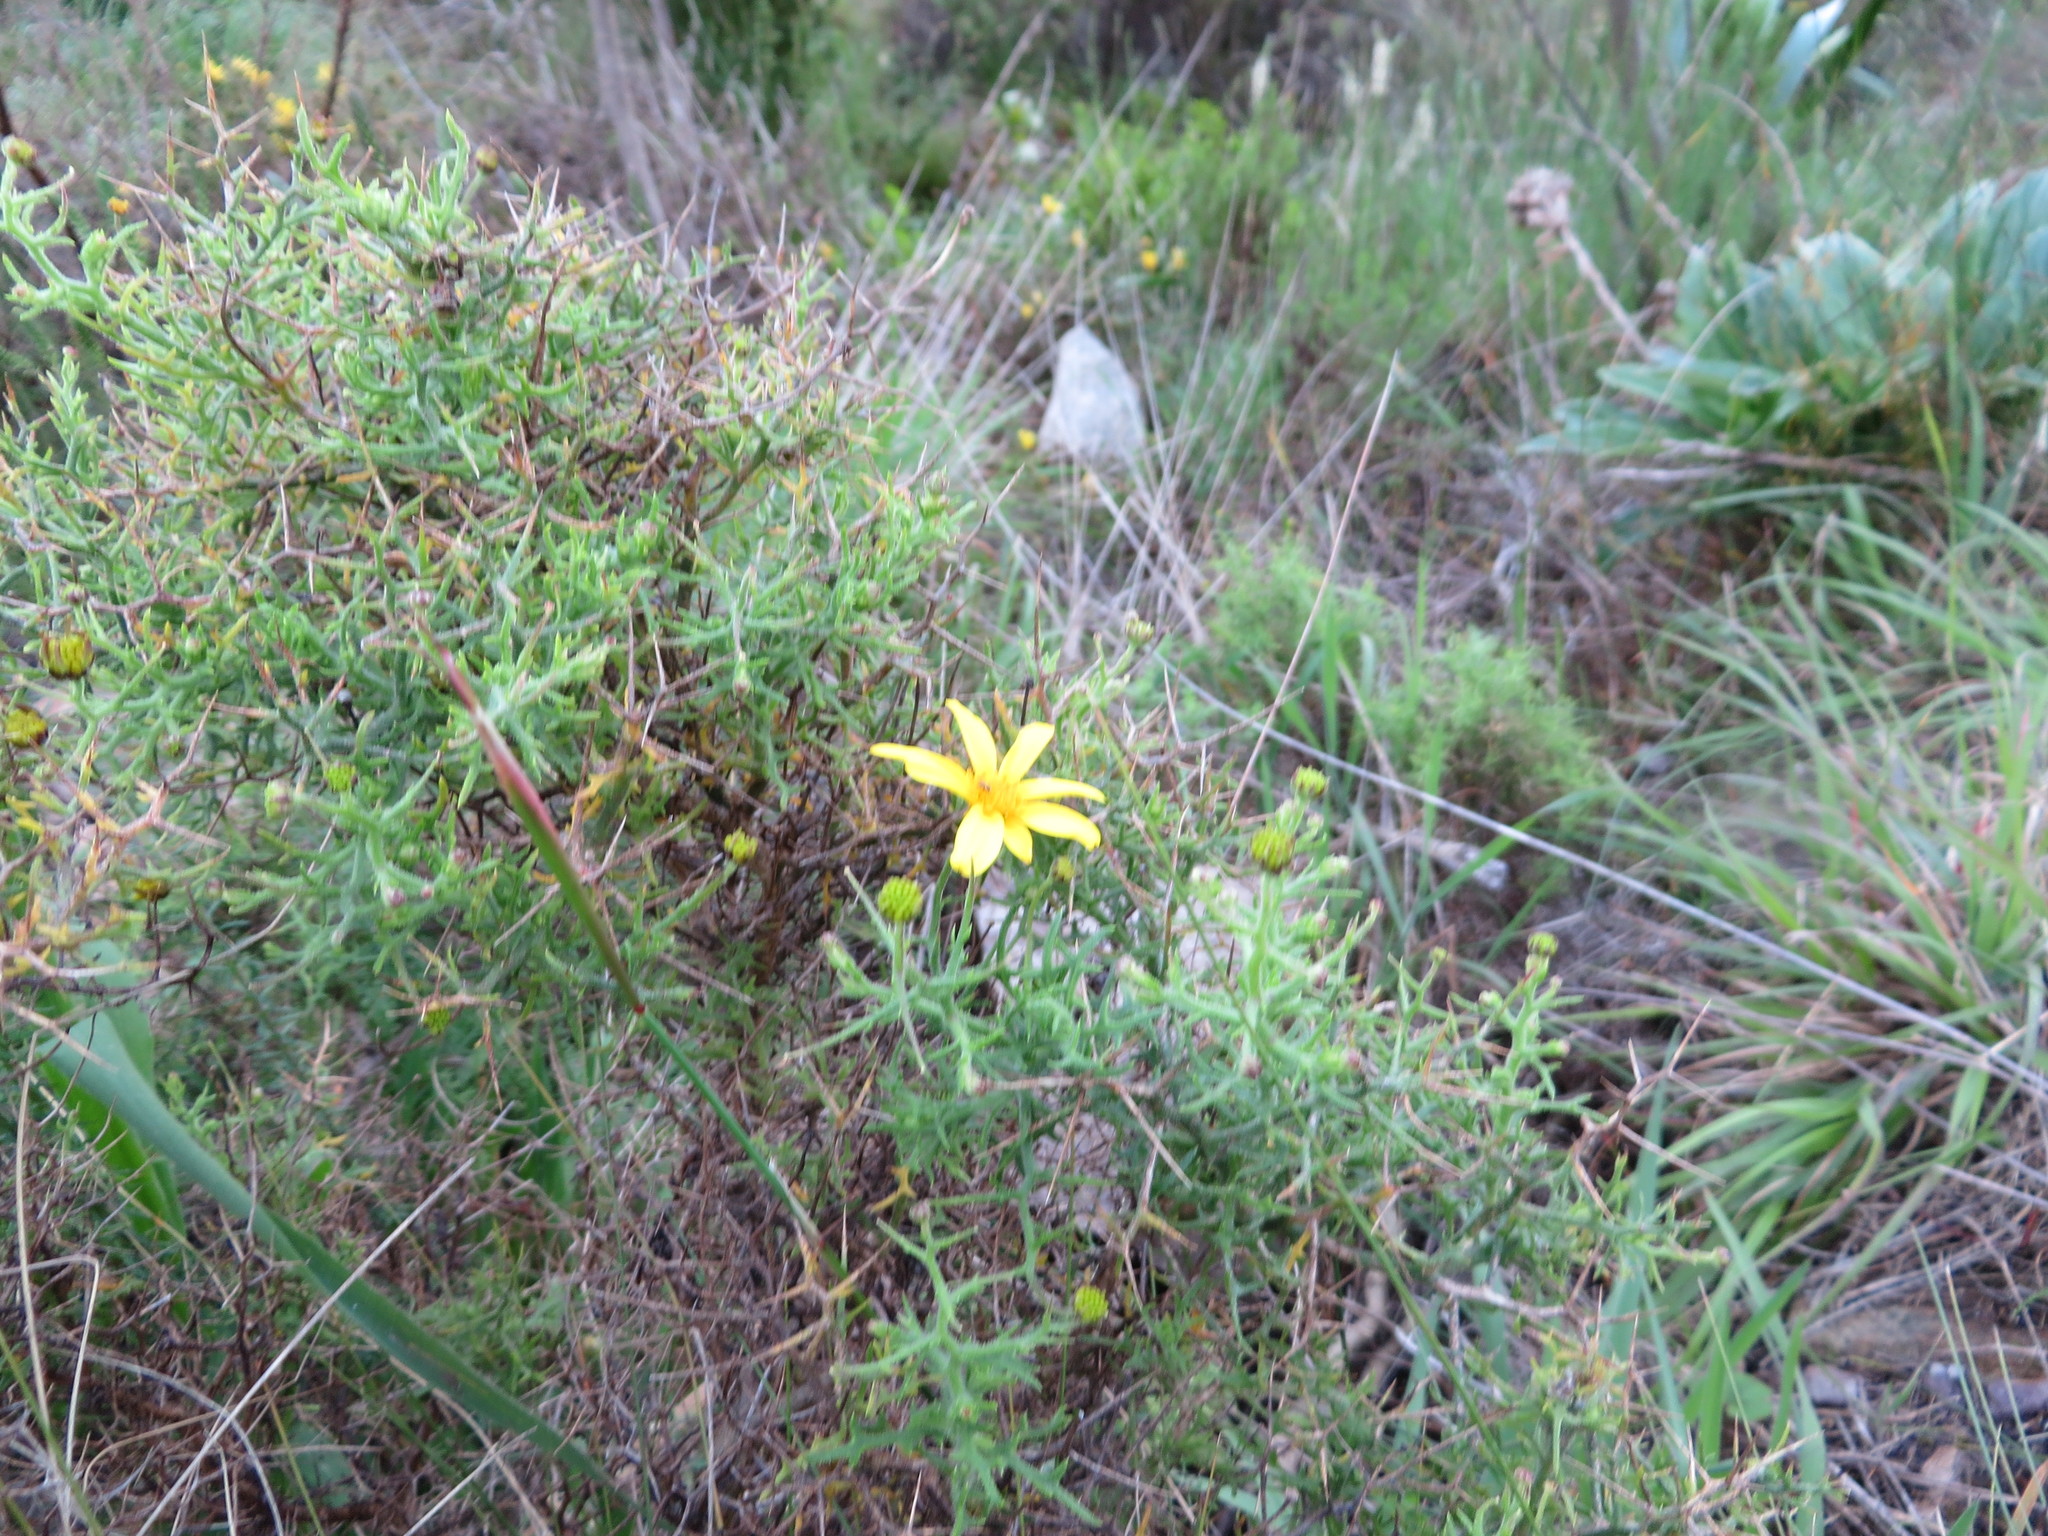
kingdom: Plantae
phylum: Tracheophyta
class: Magnoliopsida
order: Asterales
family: Asteraceae
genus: Osteospermum
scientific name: Osteospermum spinosum
